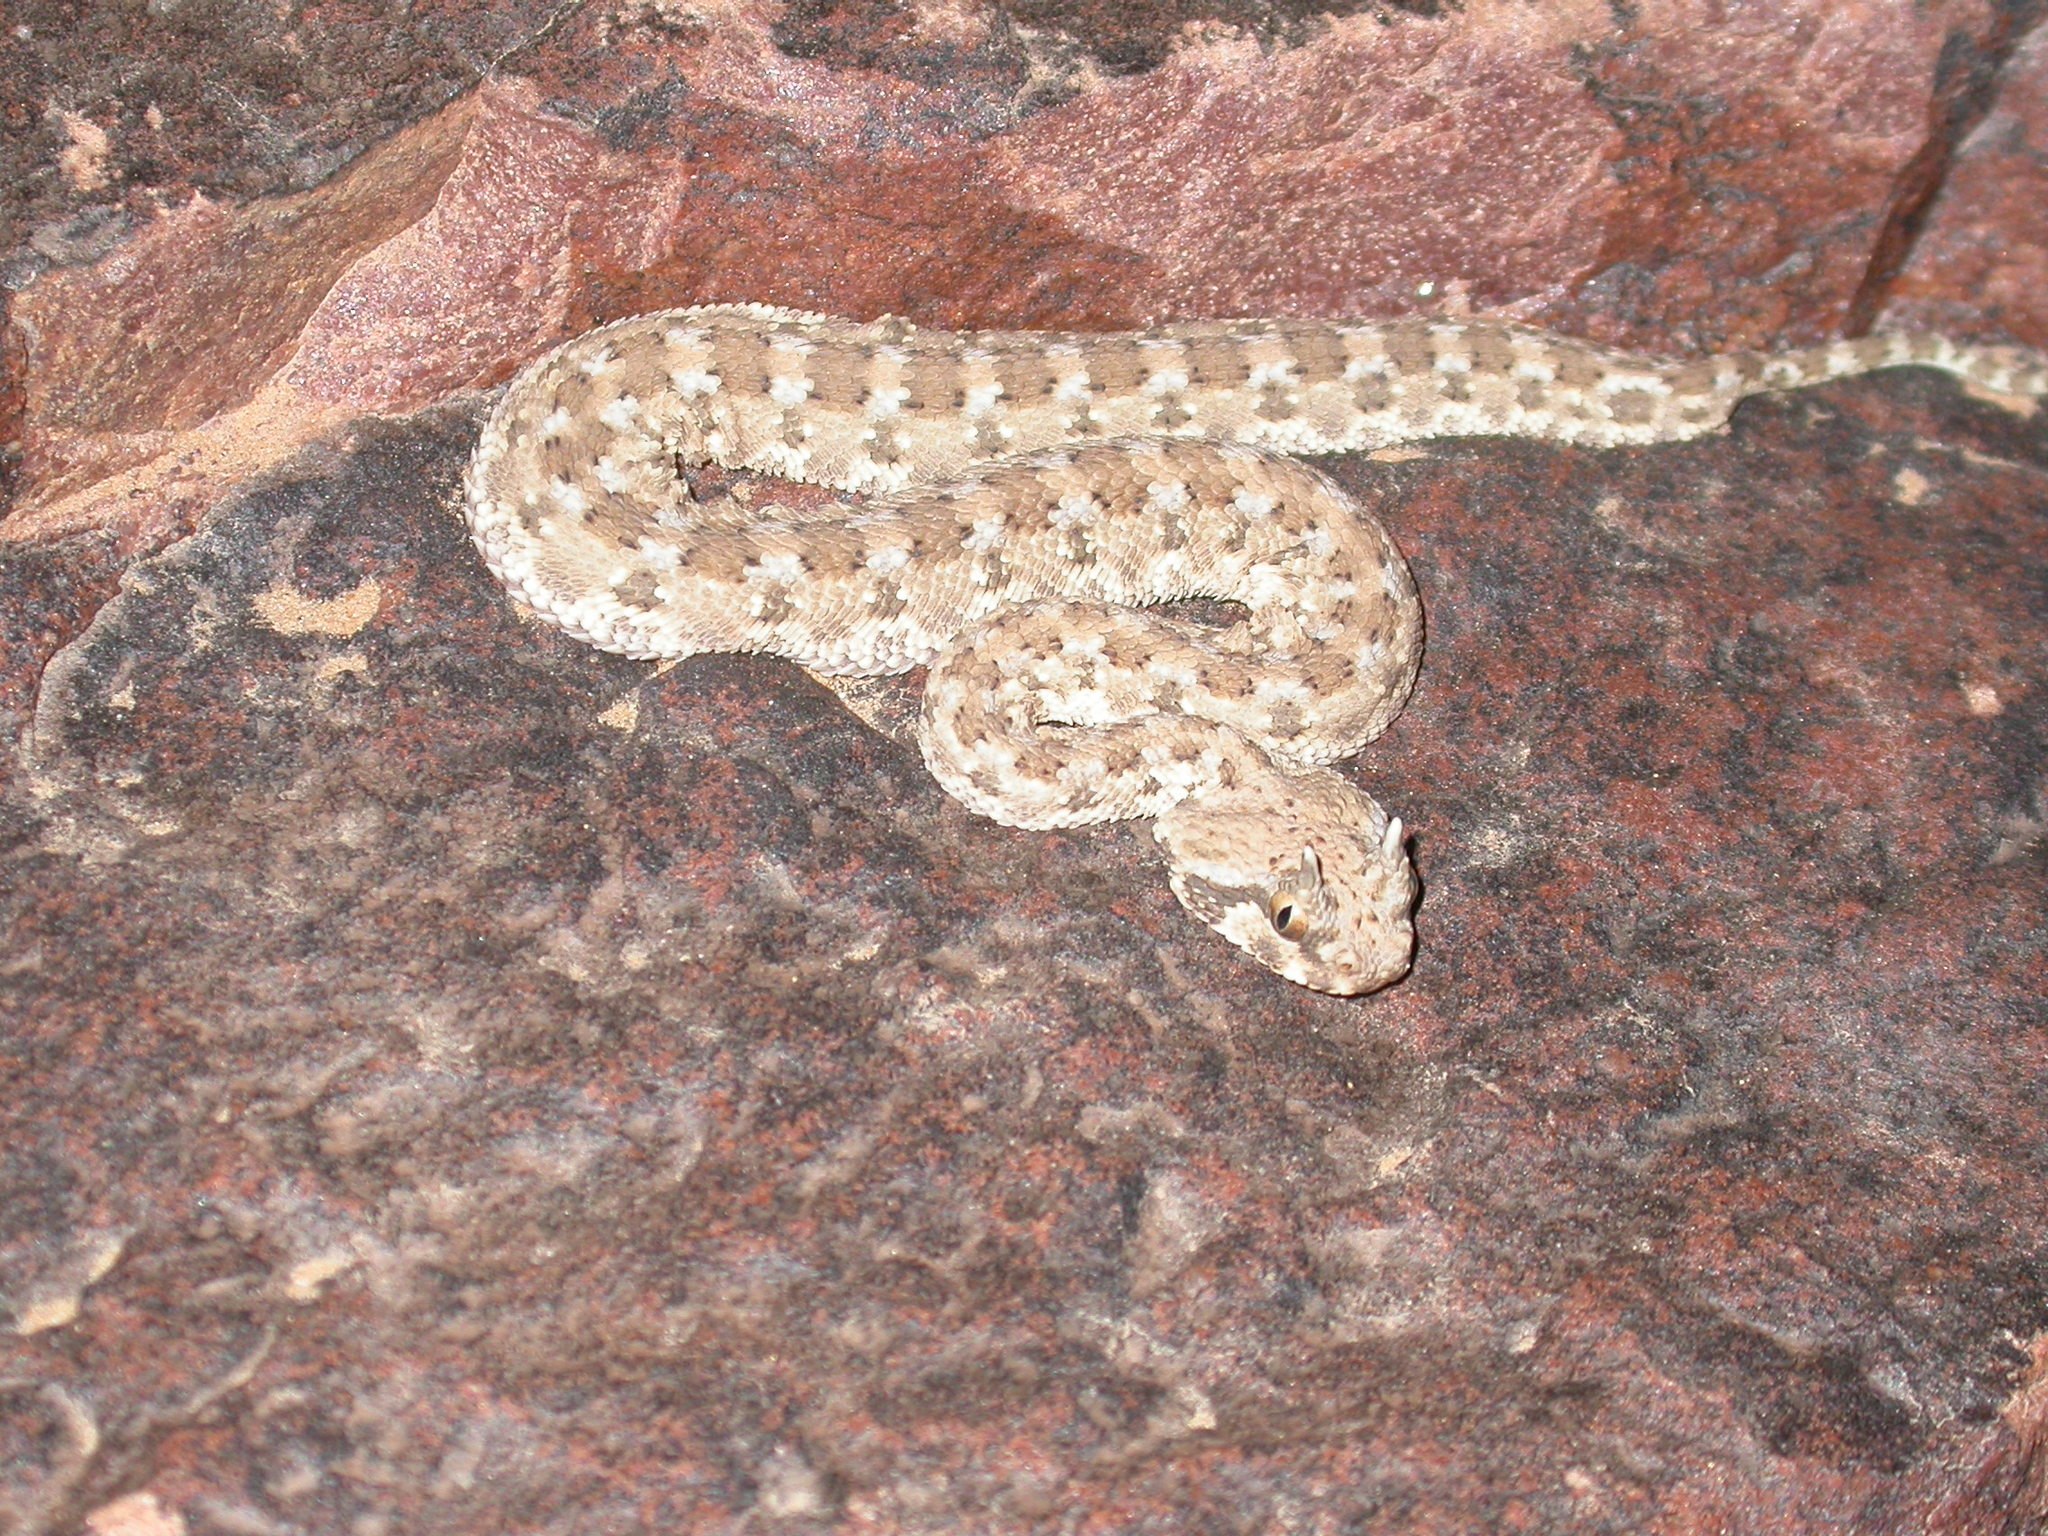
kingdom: Animalia
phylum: Chordata
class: Squamata
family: Viperidae
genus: Cerastes
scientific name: Cerastes cerastes
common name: Desert horned viper
